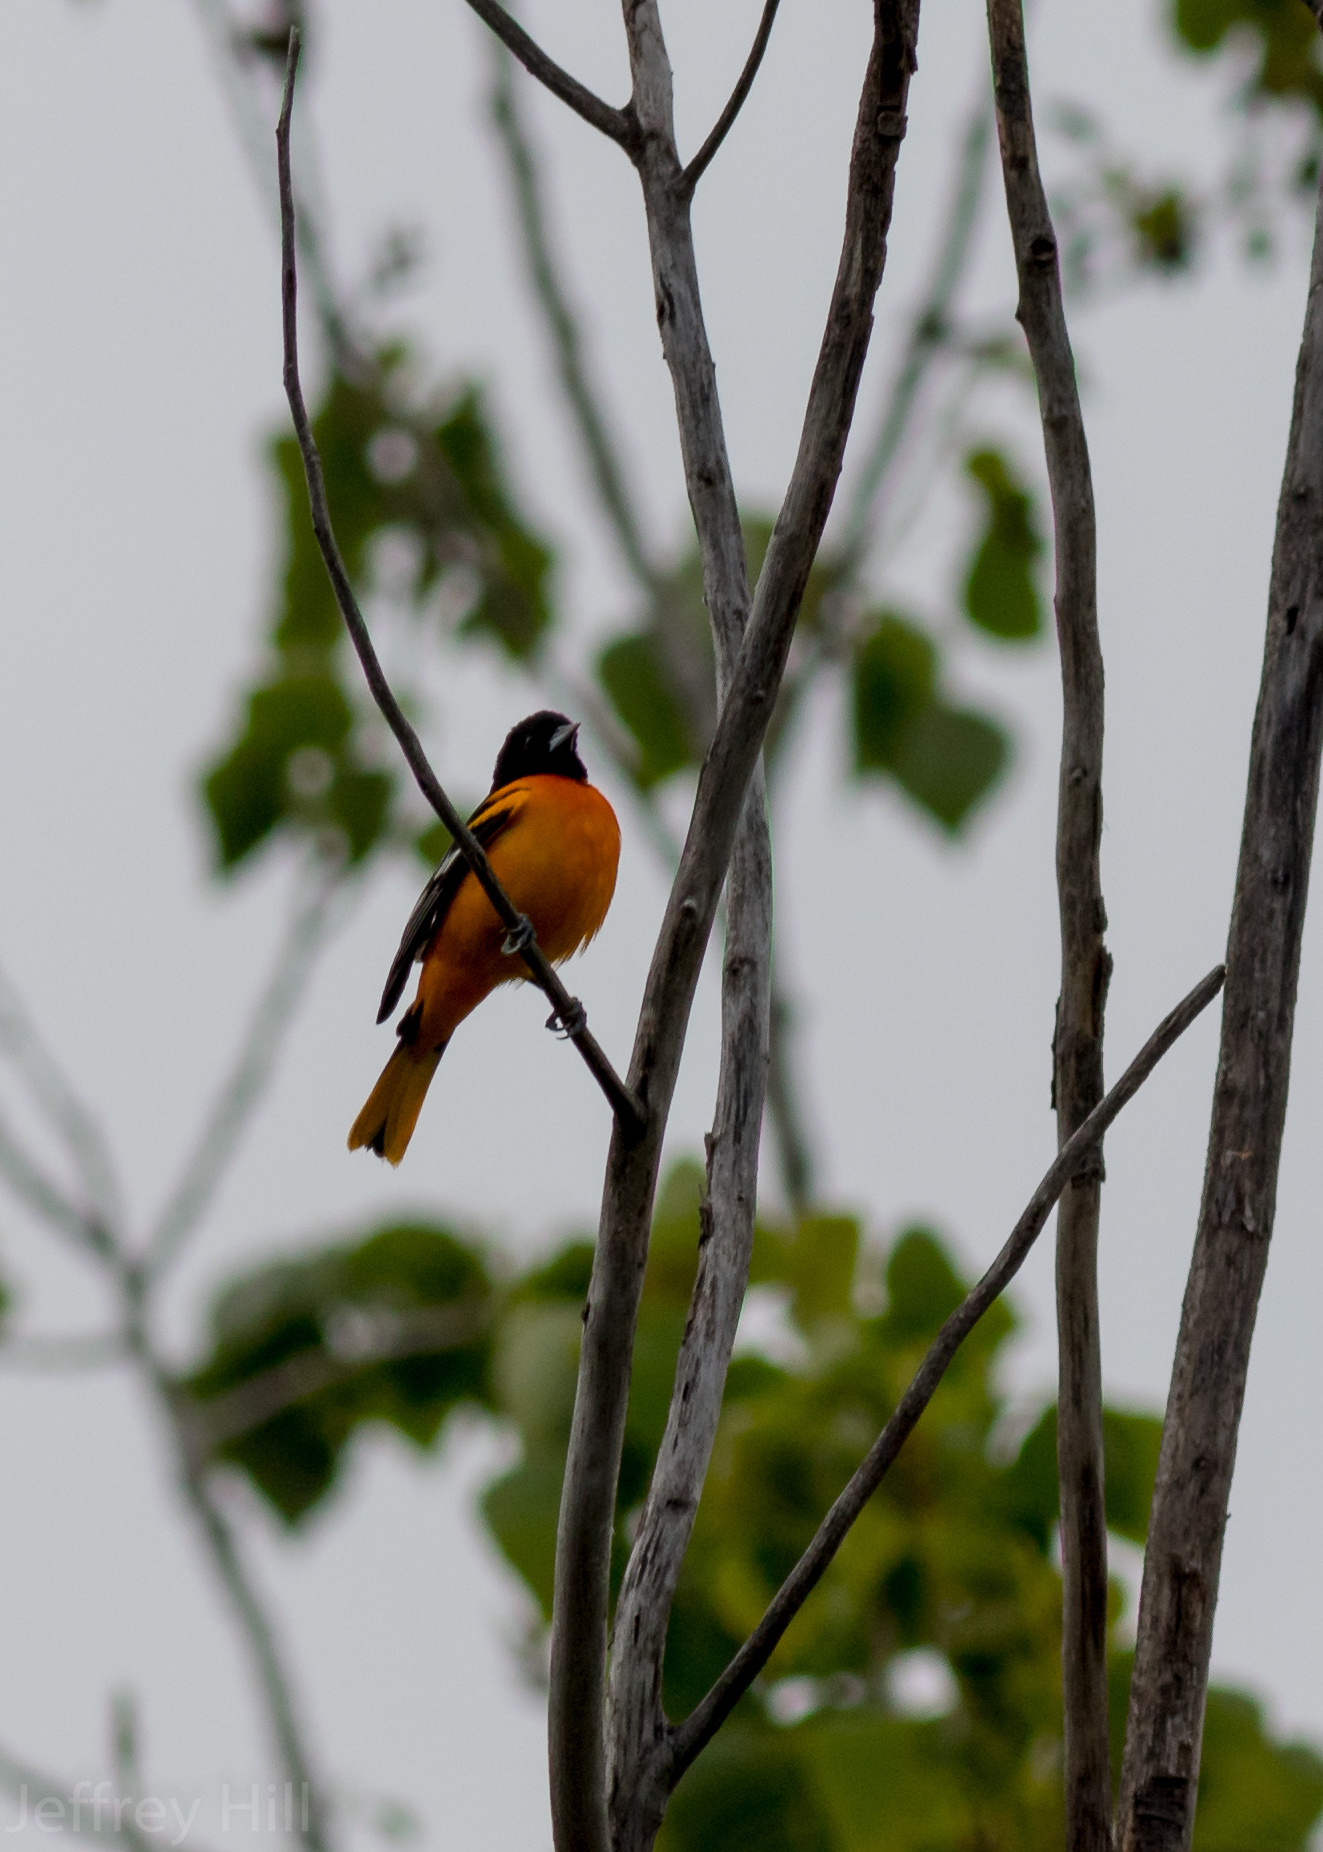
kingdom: Animalia
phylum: Chordata
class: Aves
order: Passeriformes
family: Icteridae
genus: Icterus
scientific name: Icterus galbula
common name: Baltimore oriole
